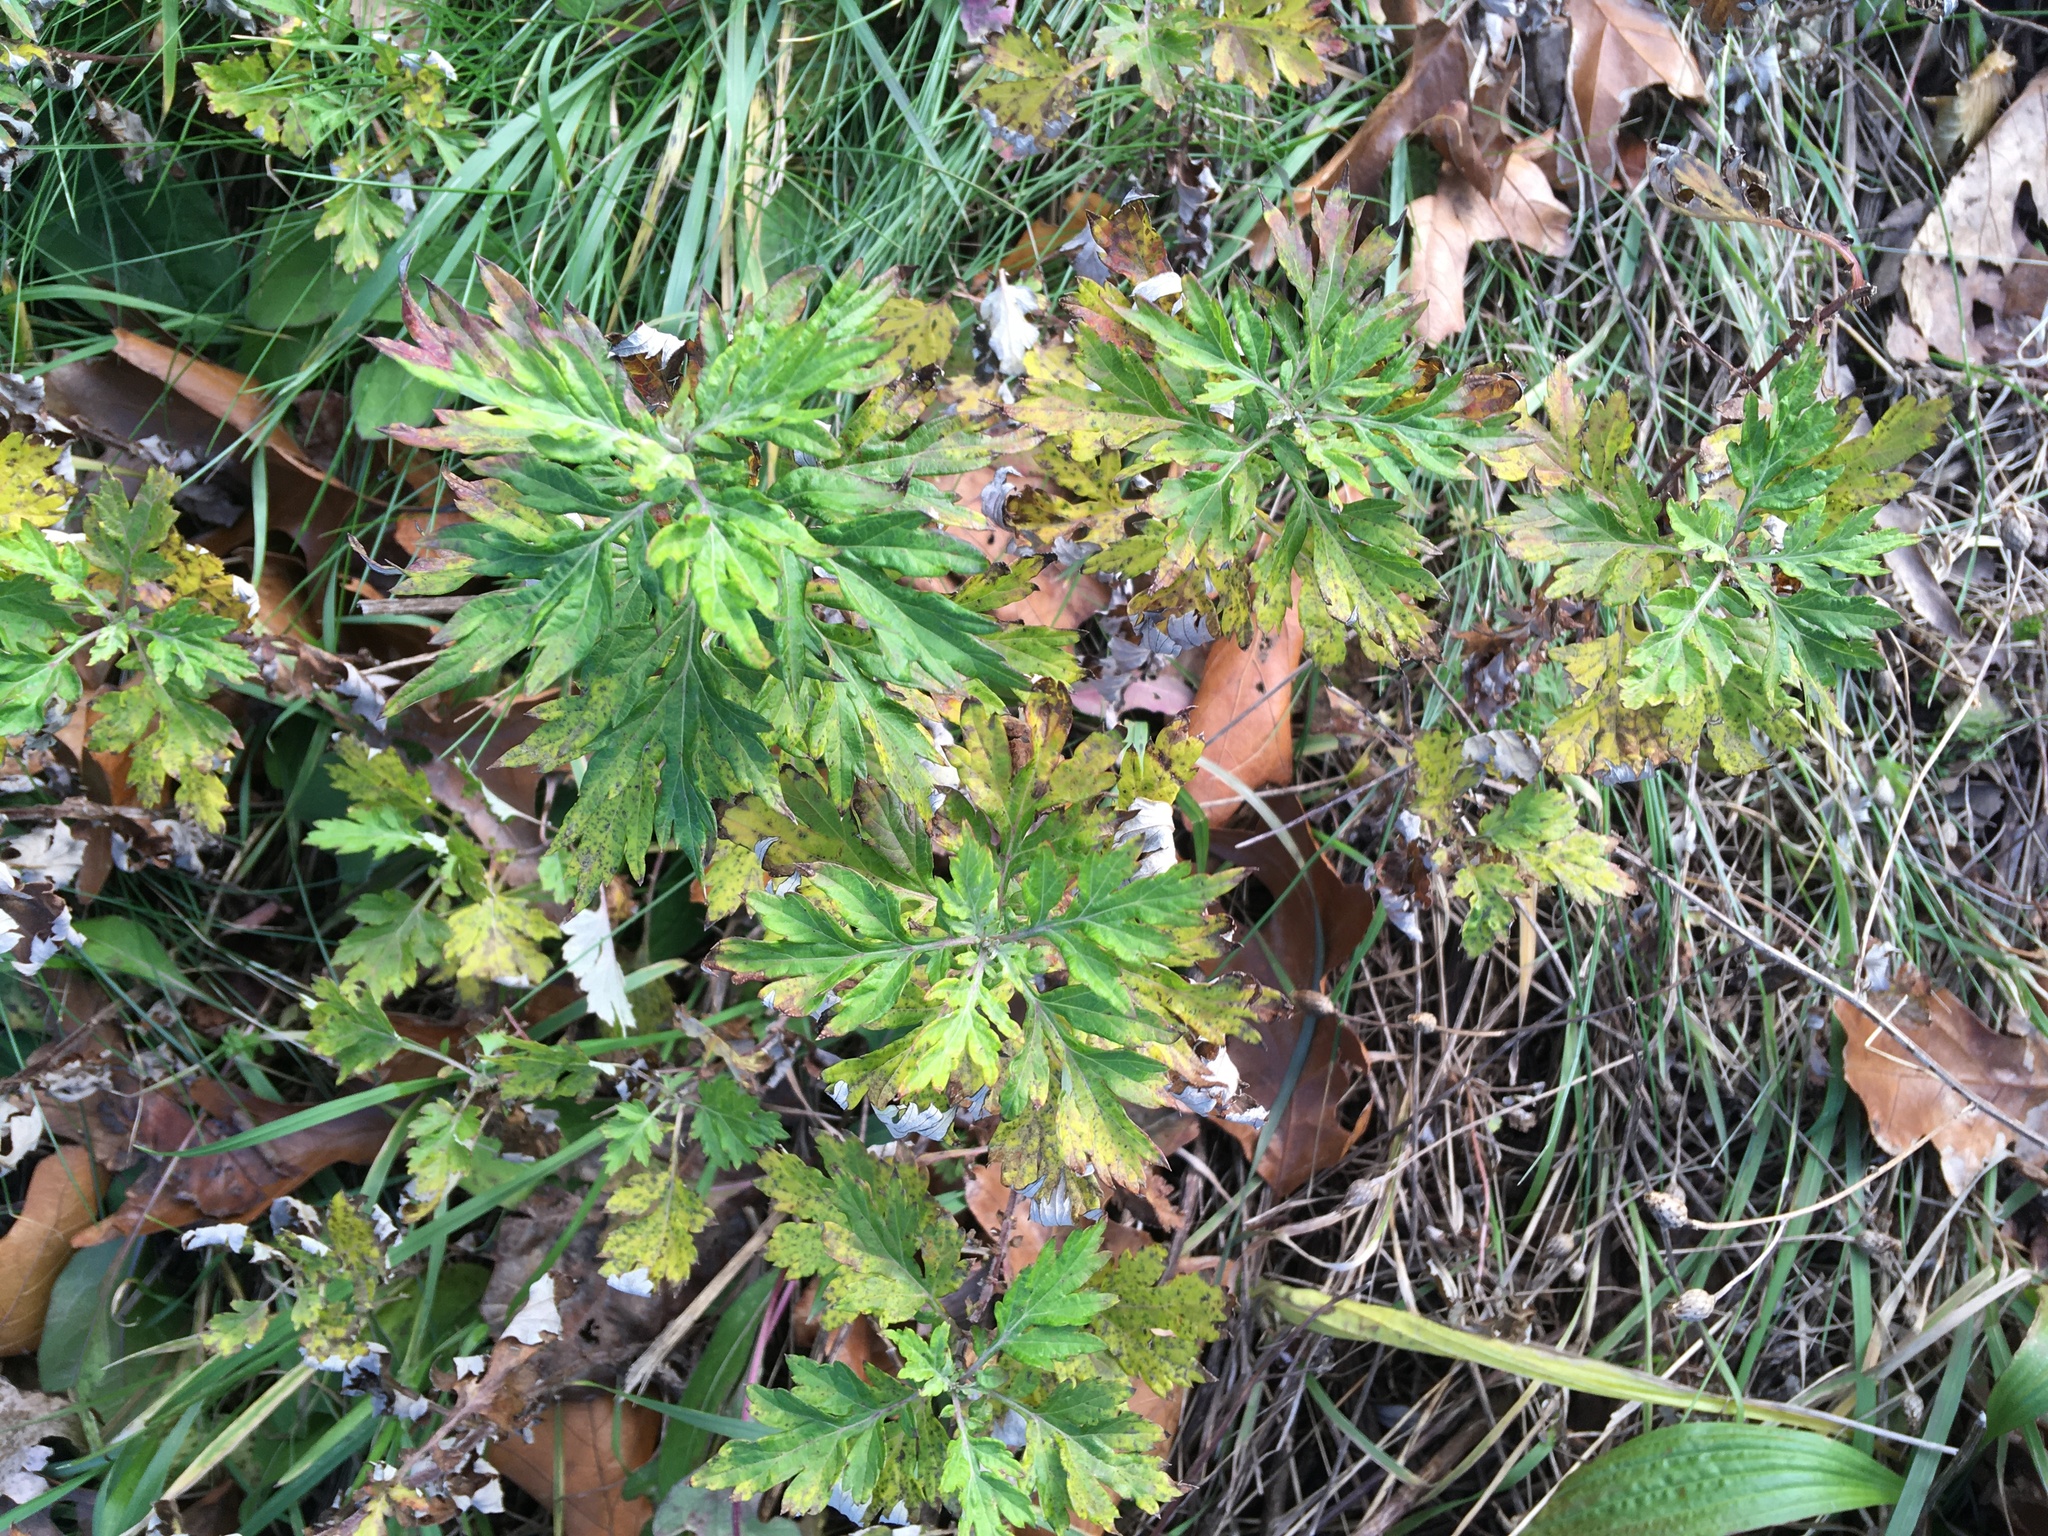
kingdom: Plantae
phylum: Tracheophyta
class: Magnoliopsida
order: Asterales
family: Asteraceae
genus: Artemisia
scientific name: Artemisia vulgaris
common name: Mugwort
